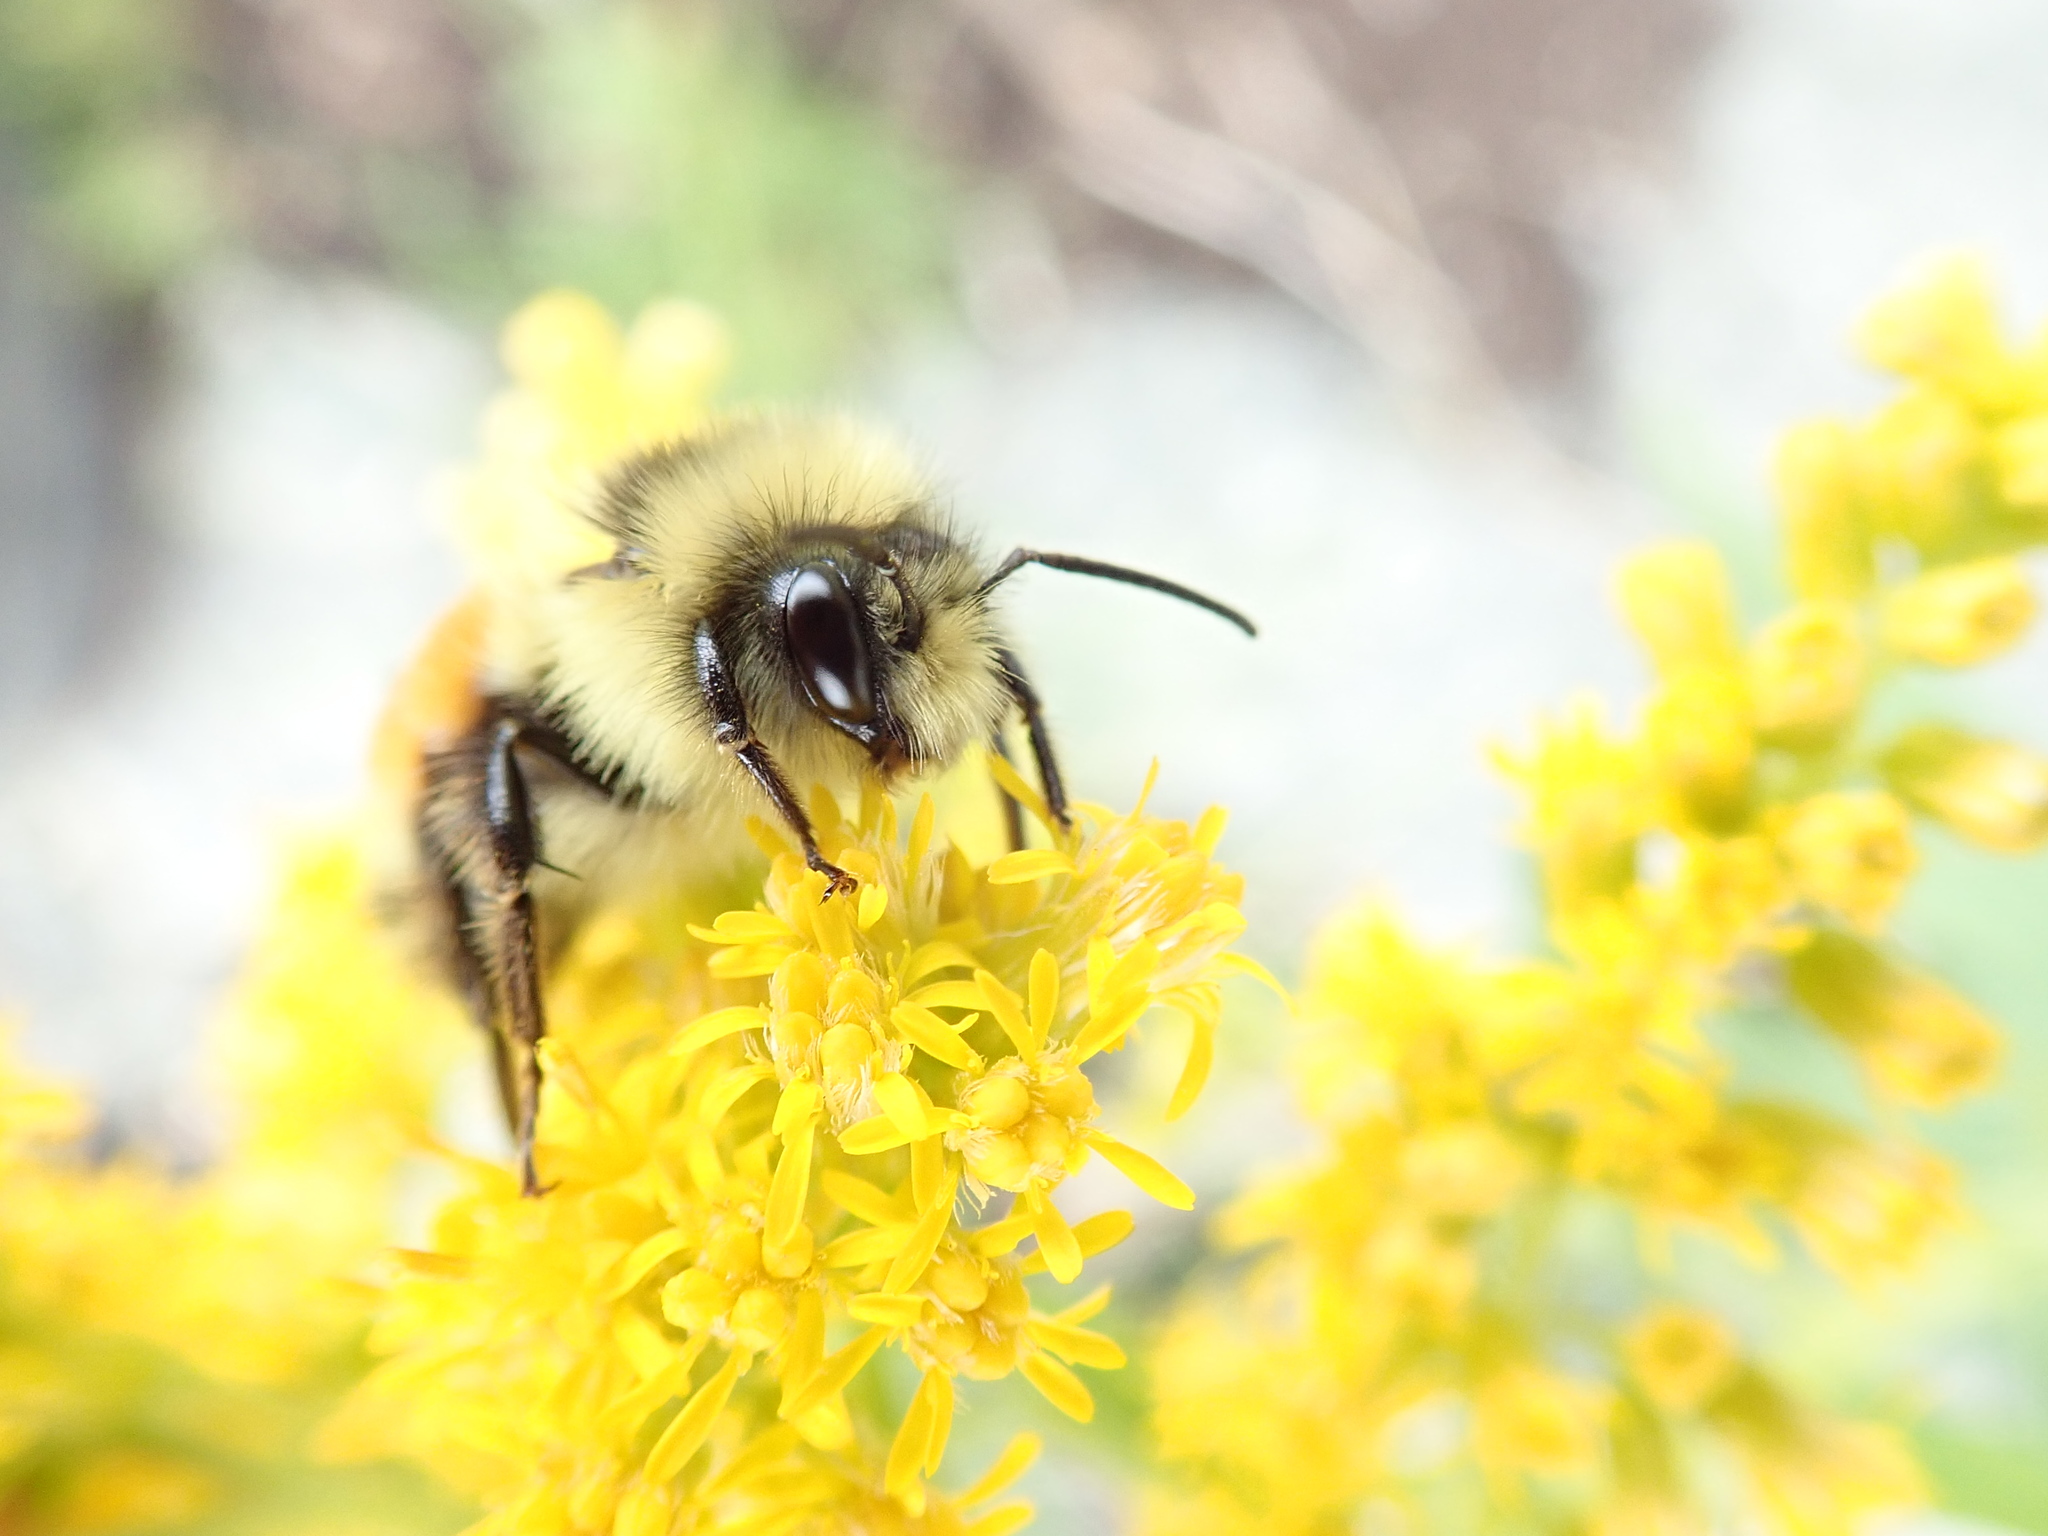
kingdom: Animalia
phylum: Arthropoda
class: Insecta
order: Hymenoptera
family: Apidae
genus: Bombus
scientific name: Bombus ternarius
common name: Tri-colored bumble bee
